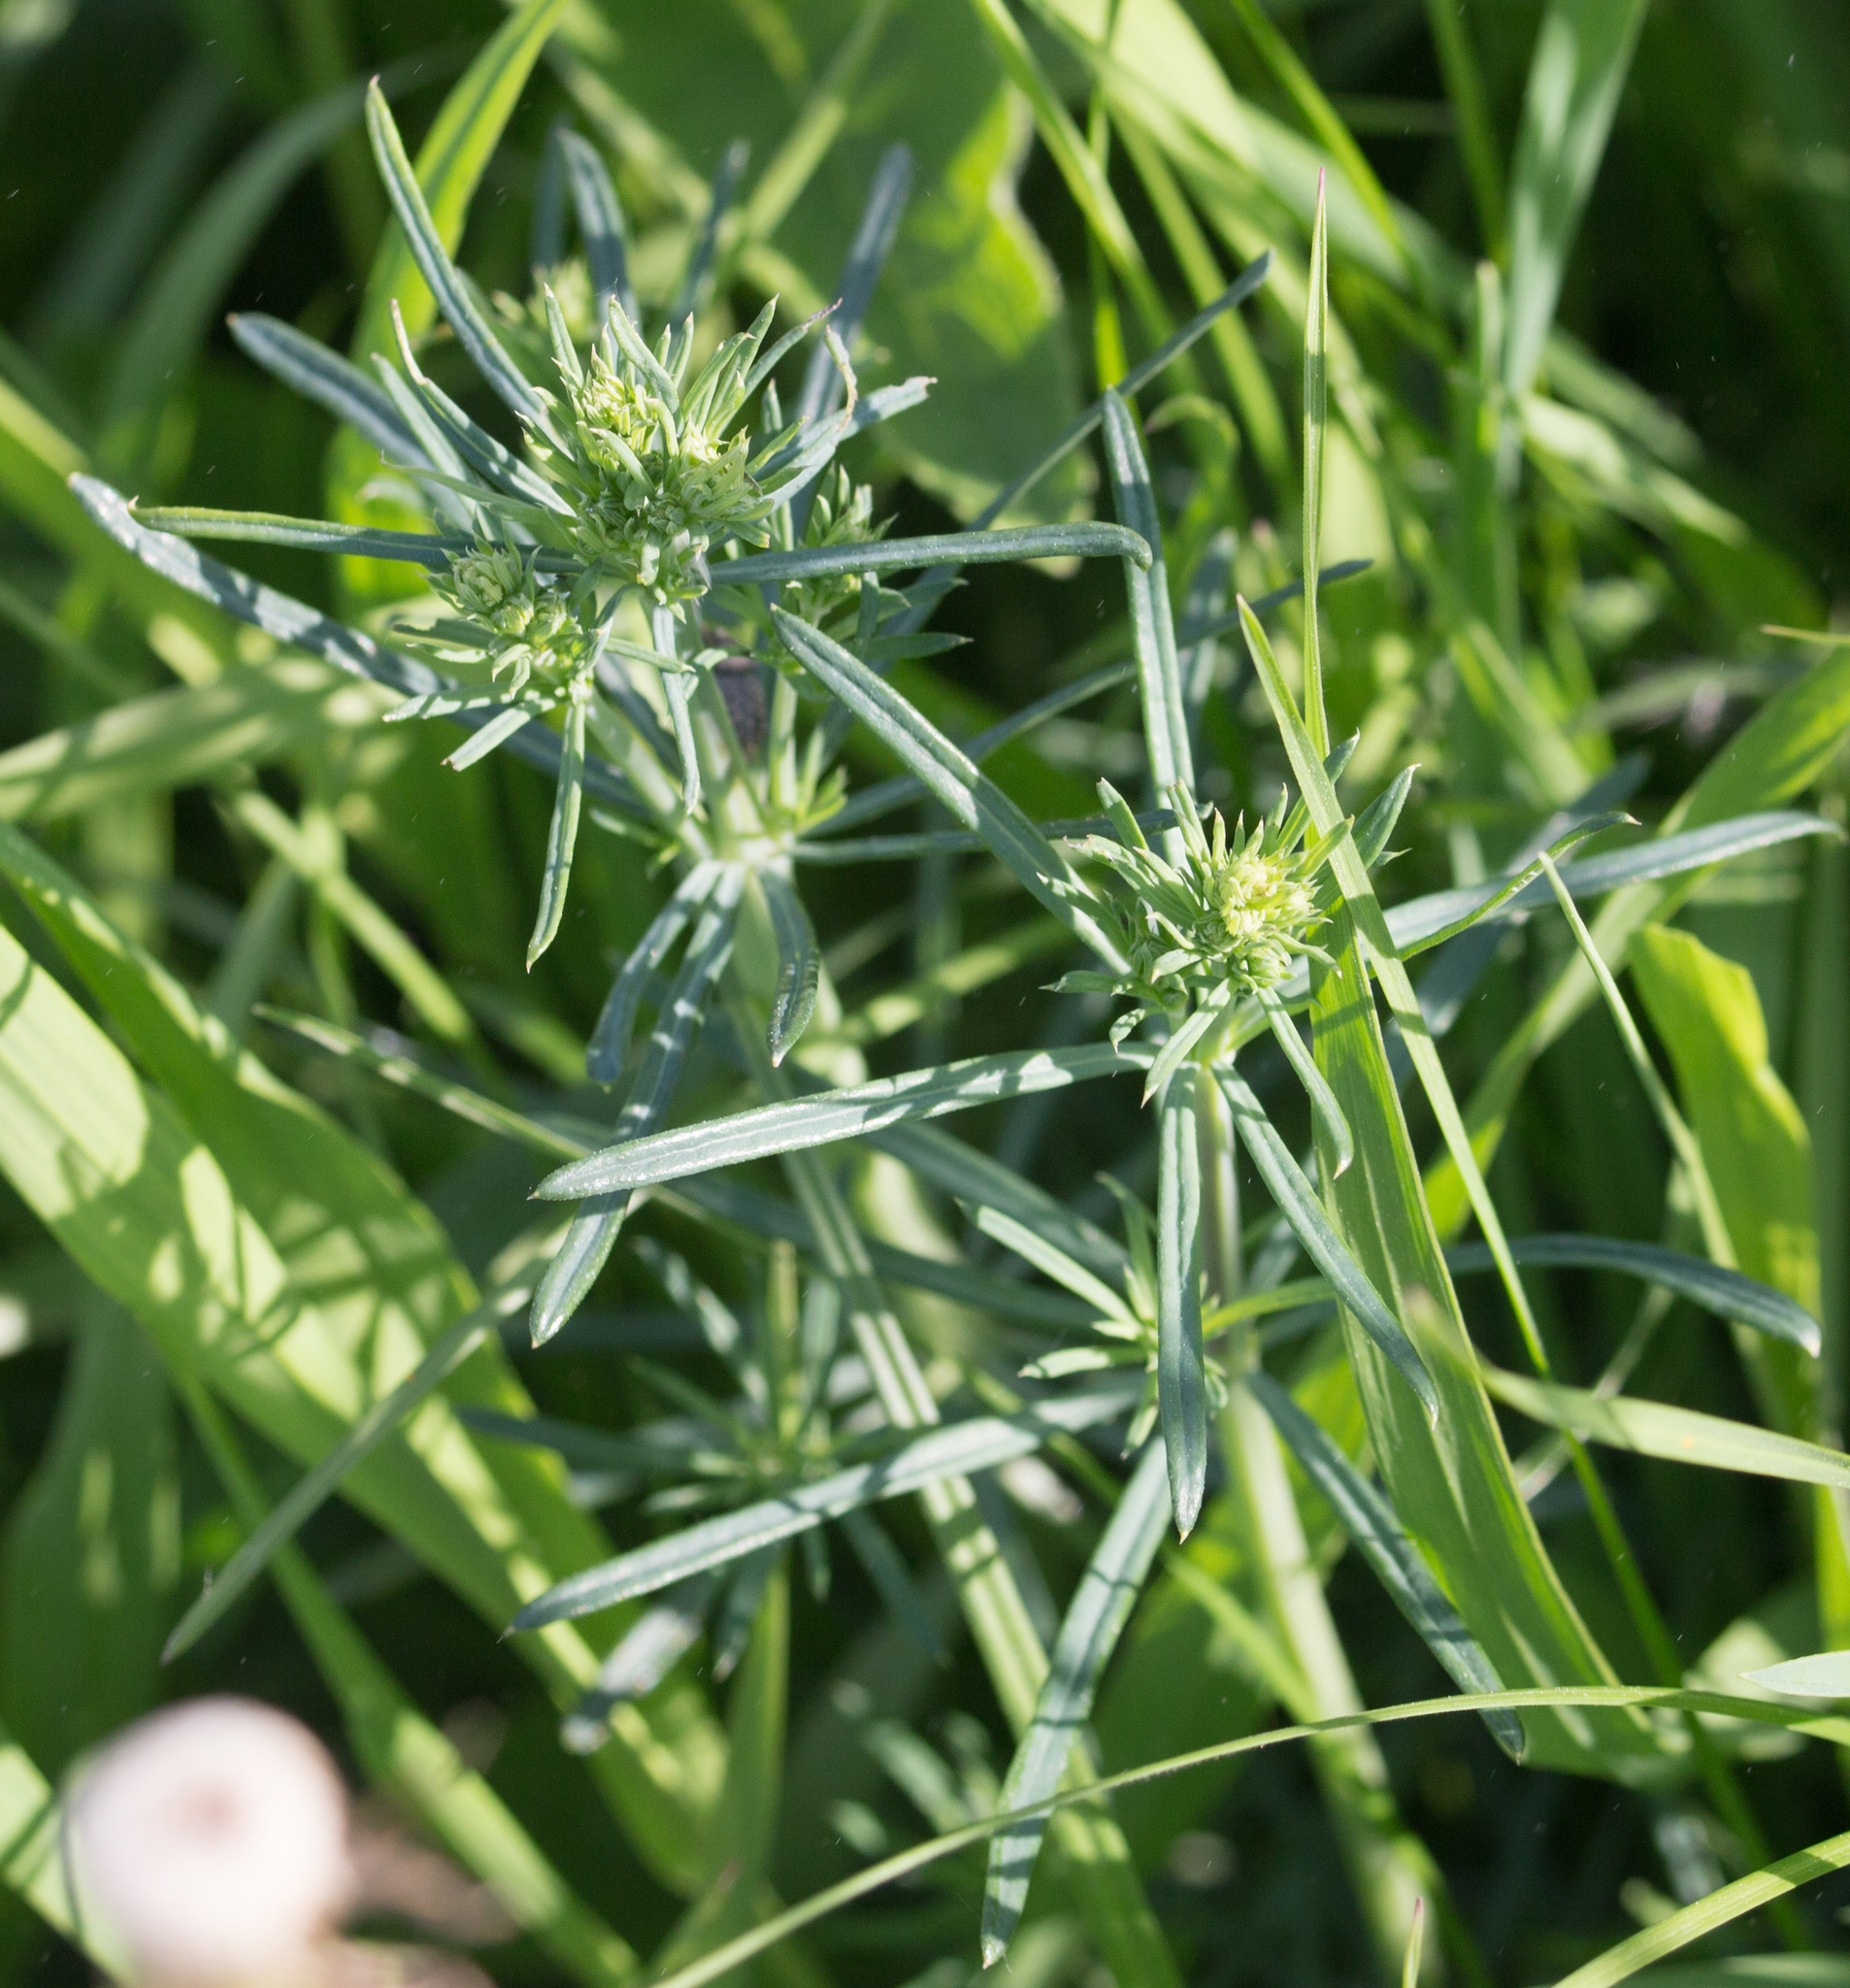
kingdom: Plantae
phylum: Tracheophyta
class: Magnoliopsida
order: Gentianales
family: Rubiaceae
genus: Galium
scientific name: Galium verum
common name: Lady's bedstraw
